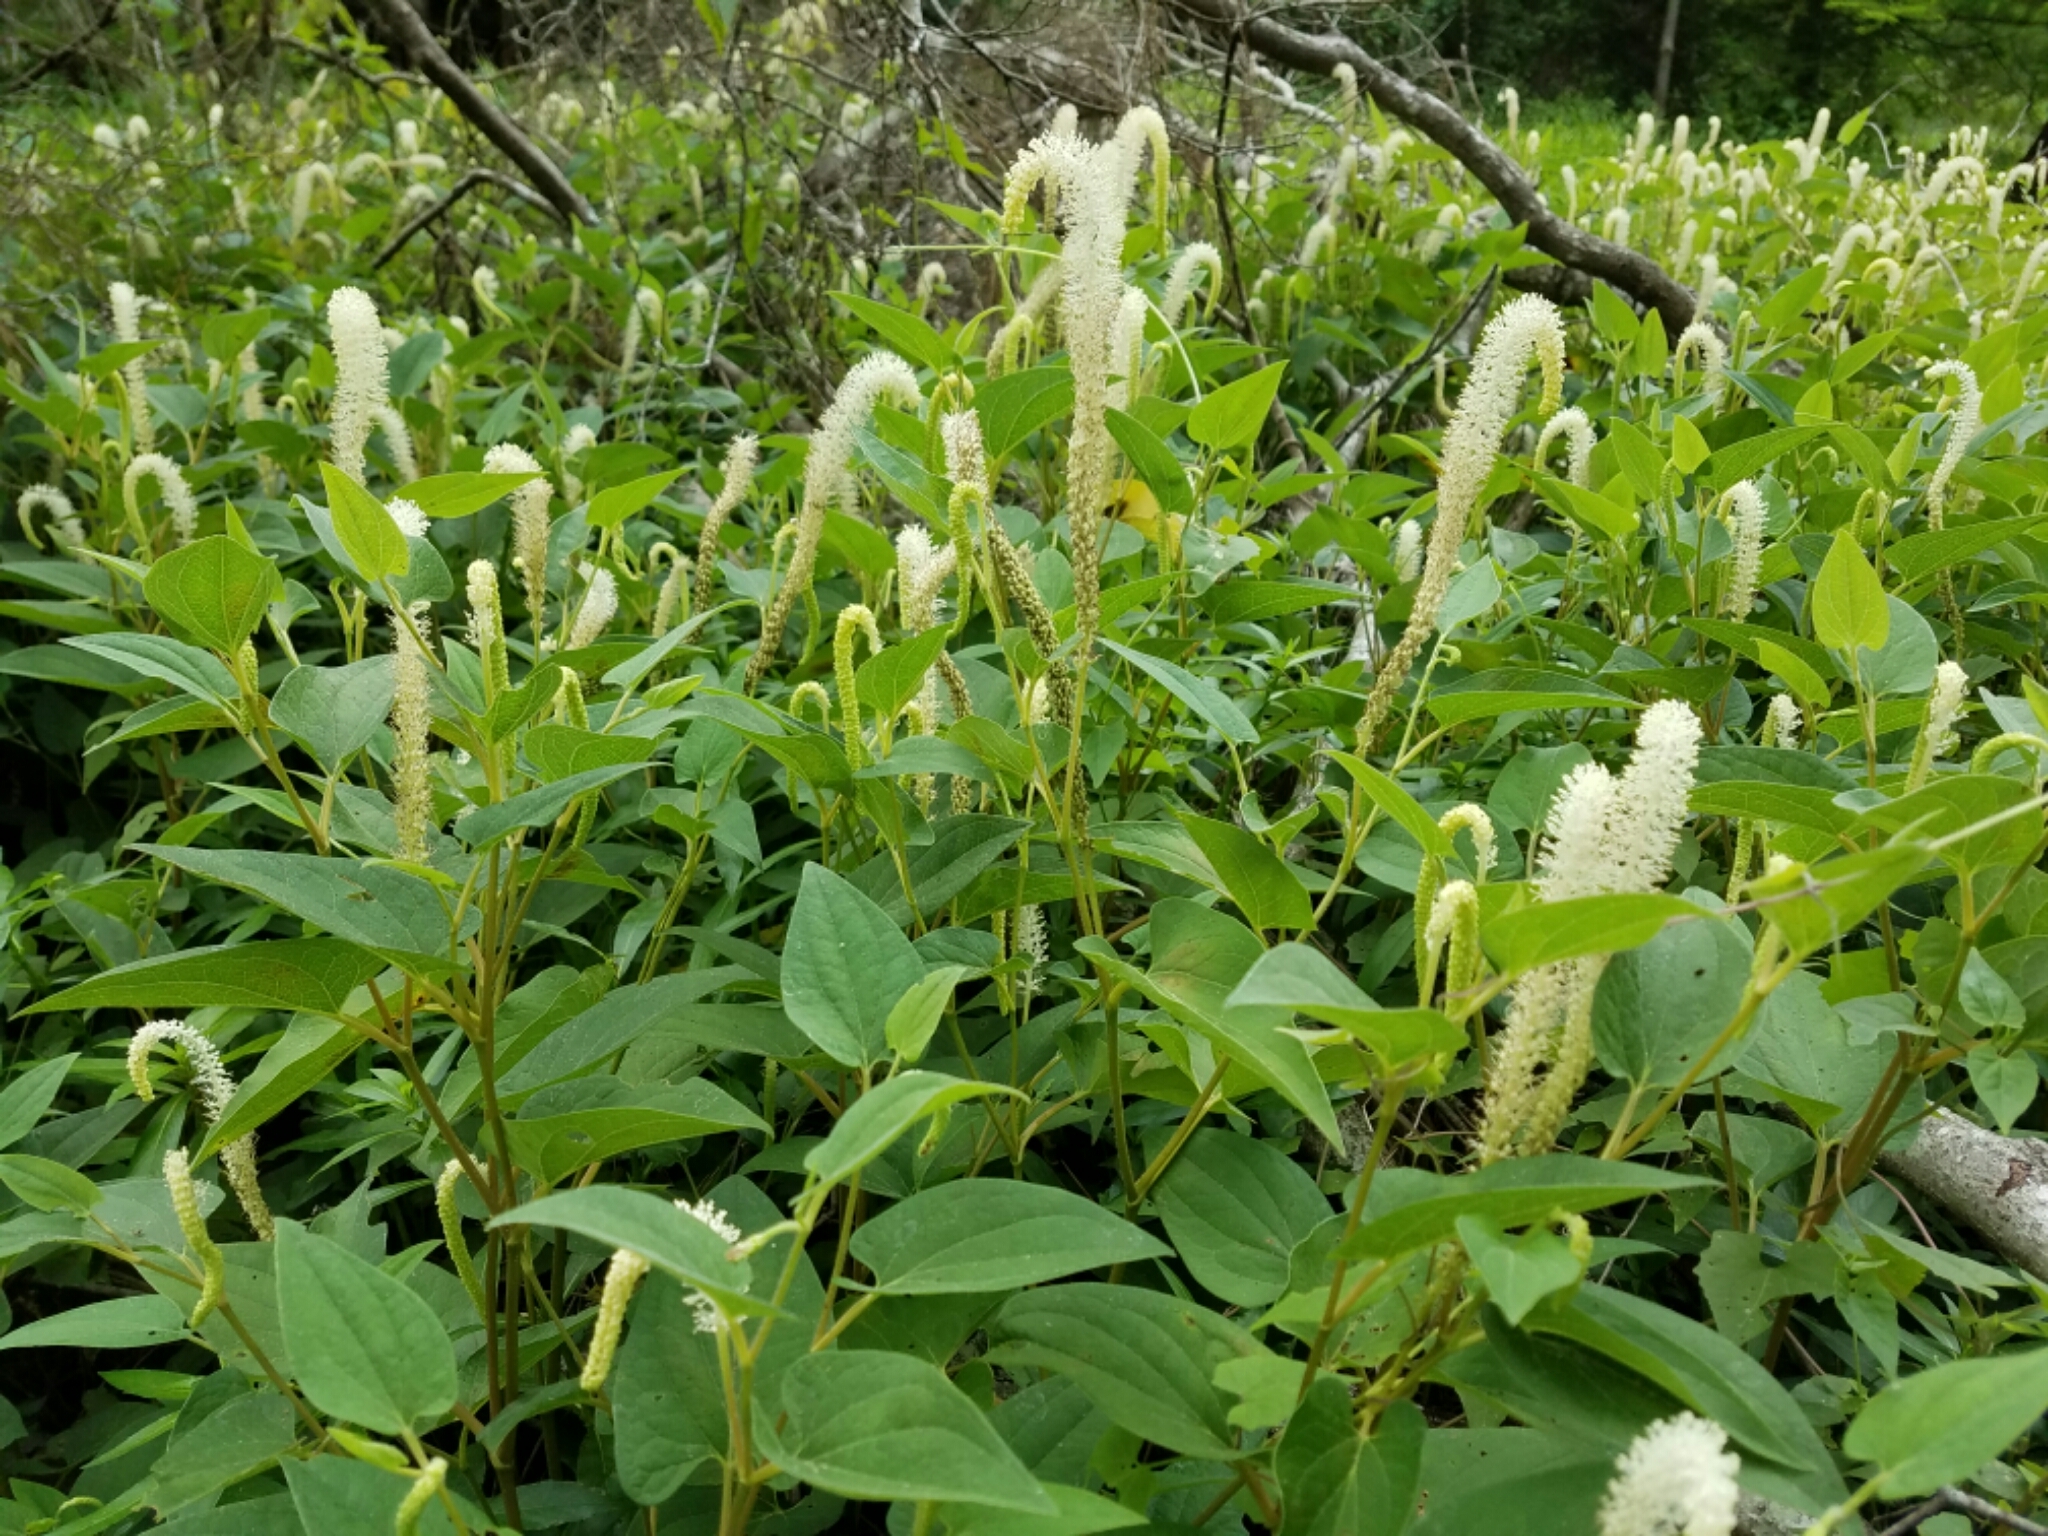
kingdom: Plantae
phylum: Tracheophyta
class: Magnoliopsida
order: Piperales
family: Saururaceae
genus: Saururus
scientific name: Saururus cernuus
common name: Lizard's-tail
